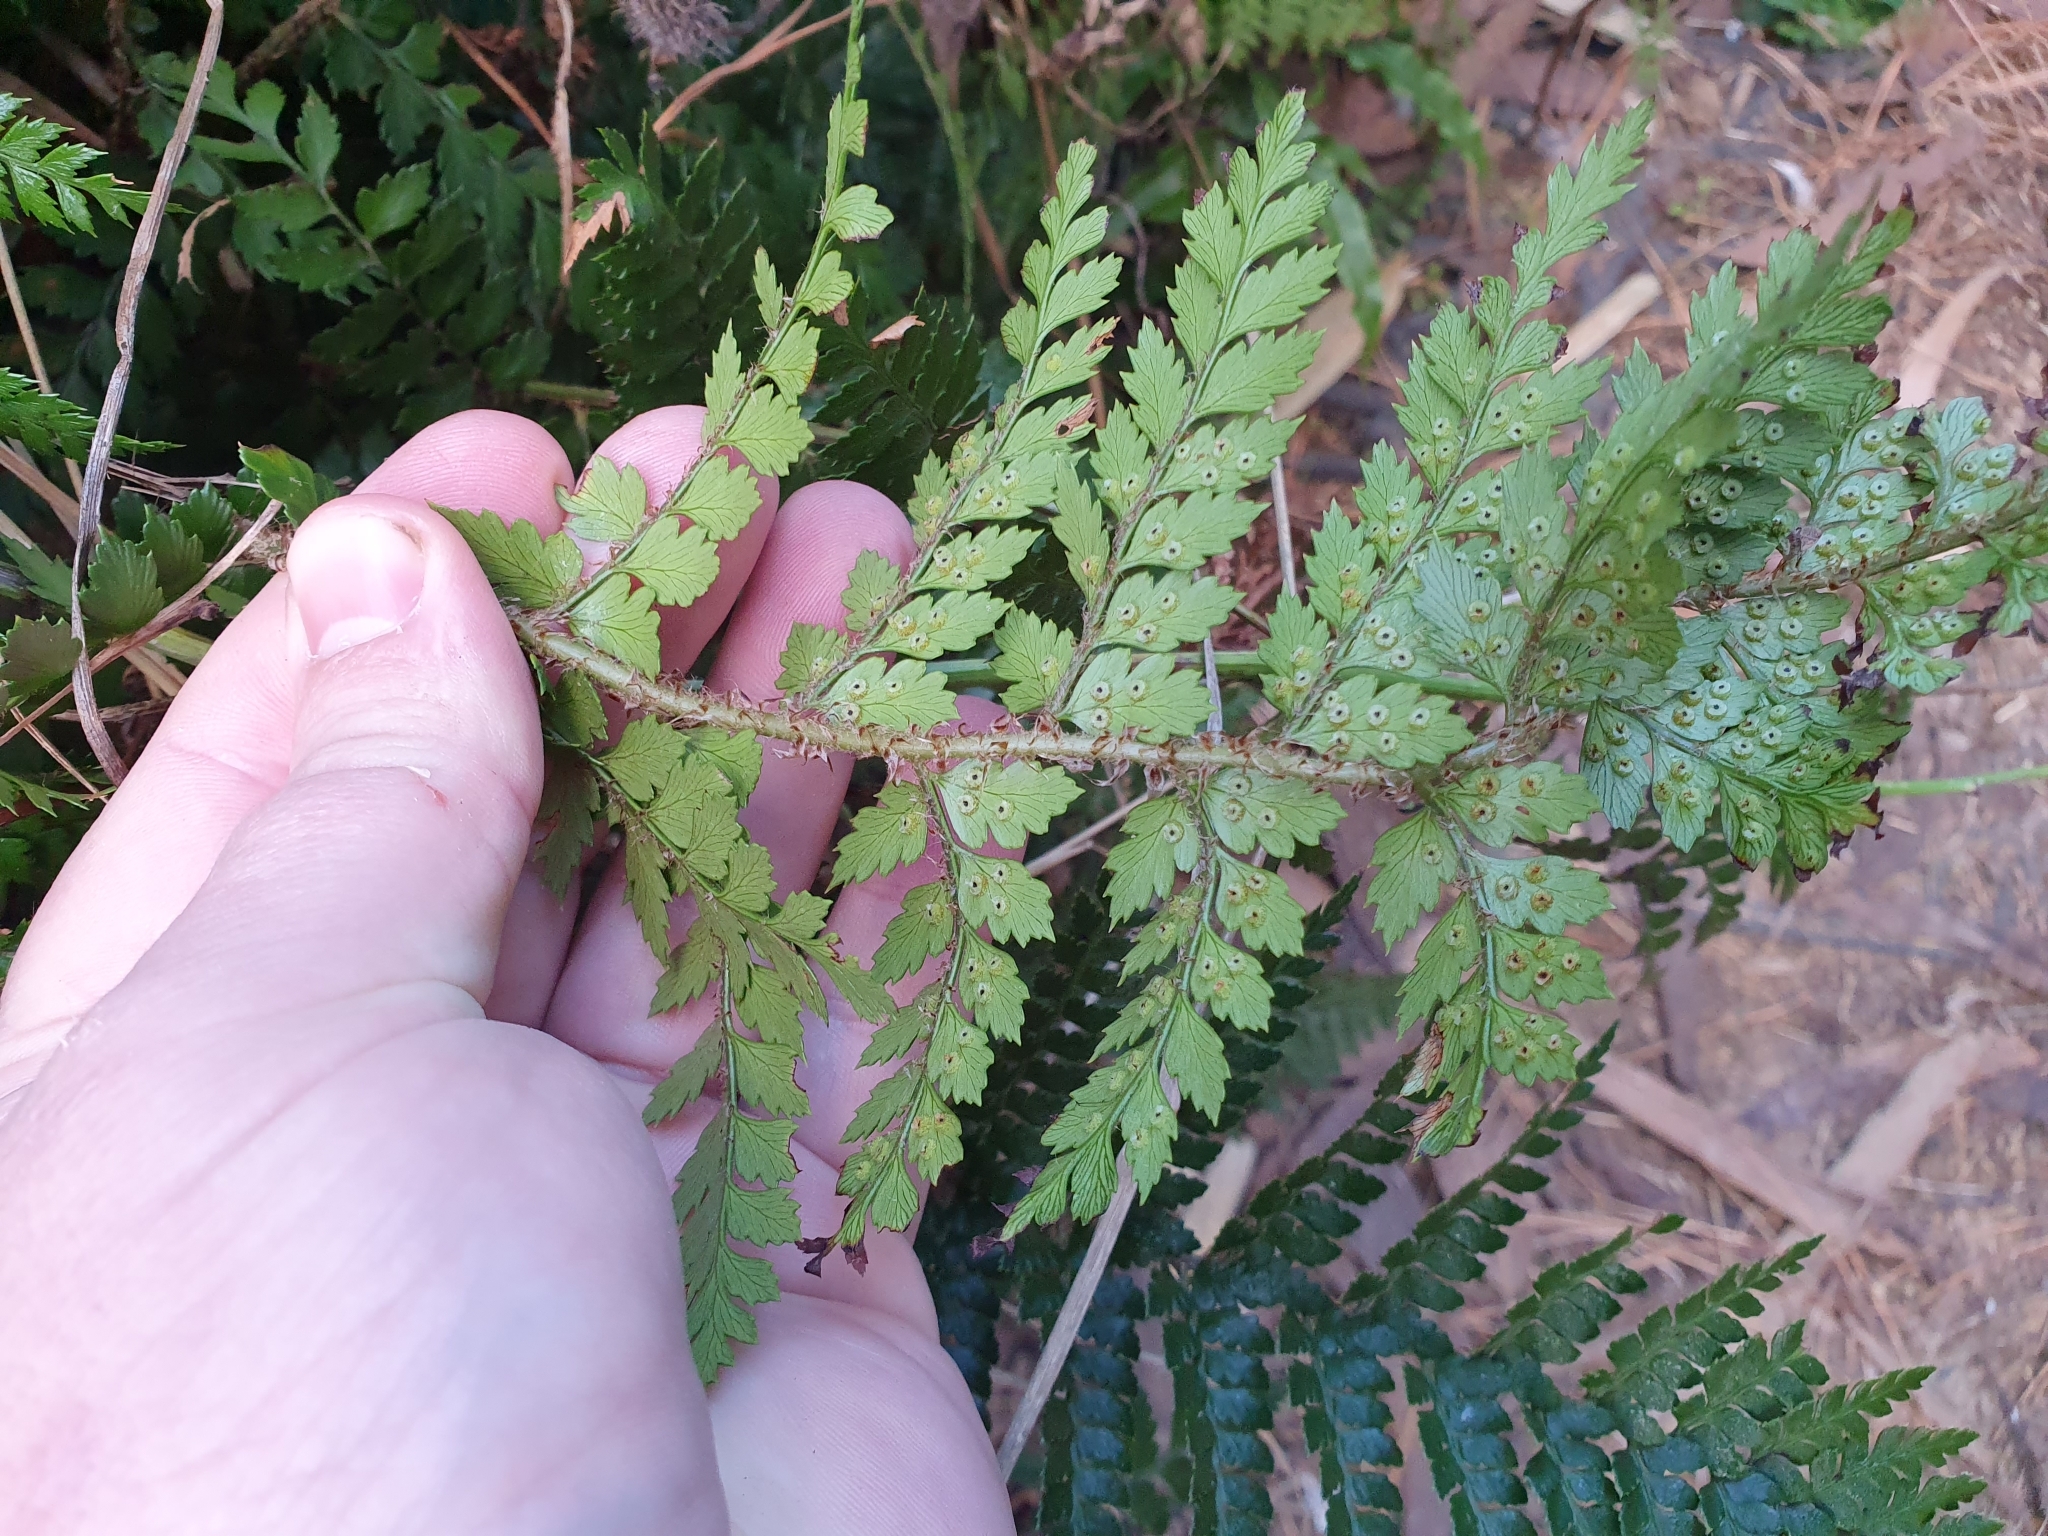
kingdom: Plantae
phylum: Tracheophyta
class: Polypodiopsida
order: Polypodiales
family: Dryopteridaceae
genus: Polystichum
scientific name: Polystichum vestitum
